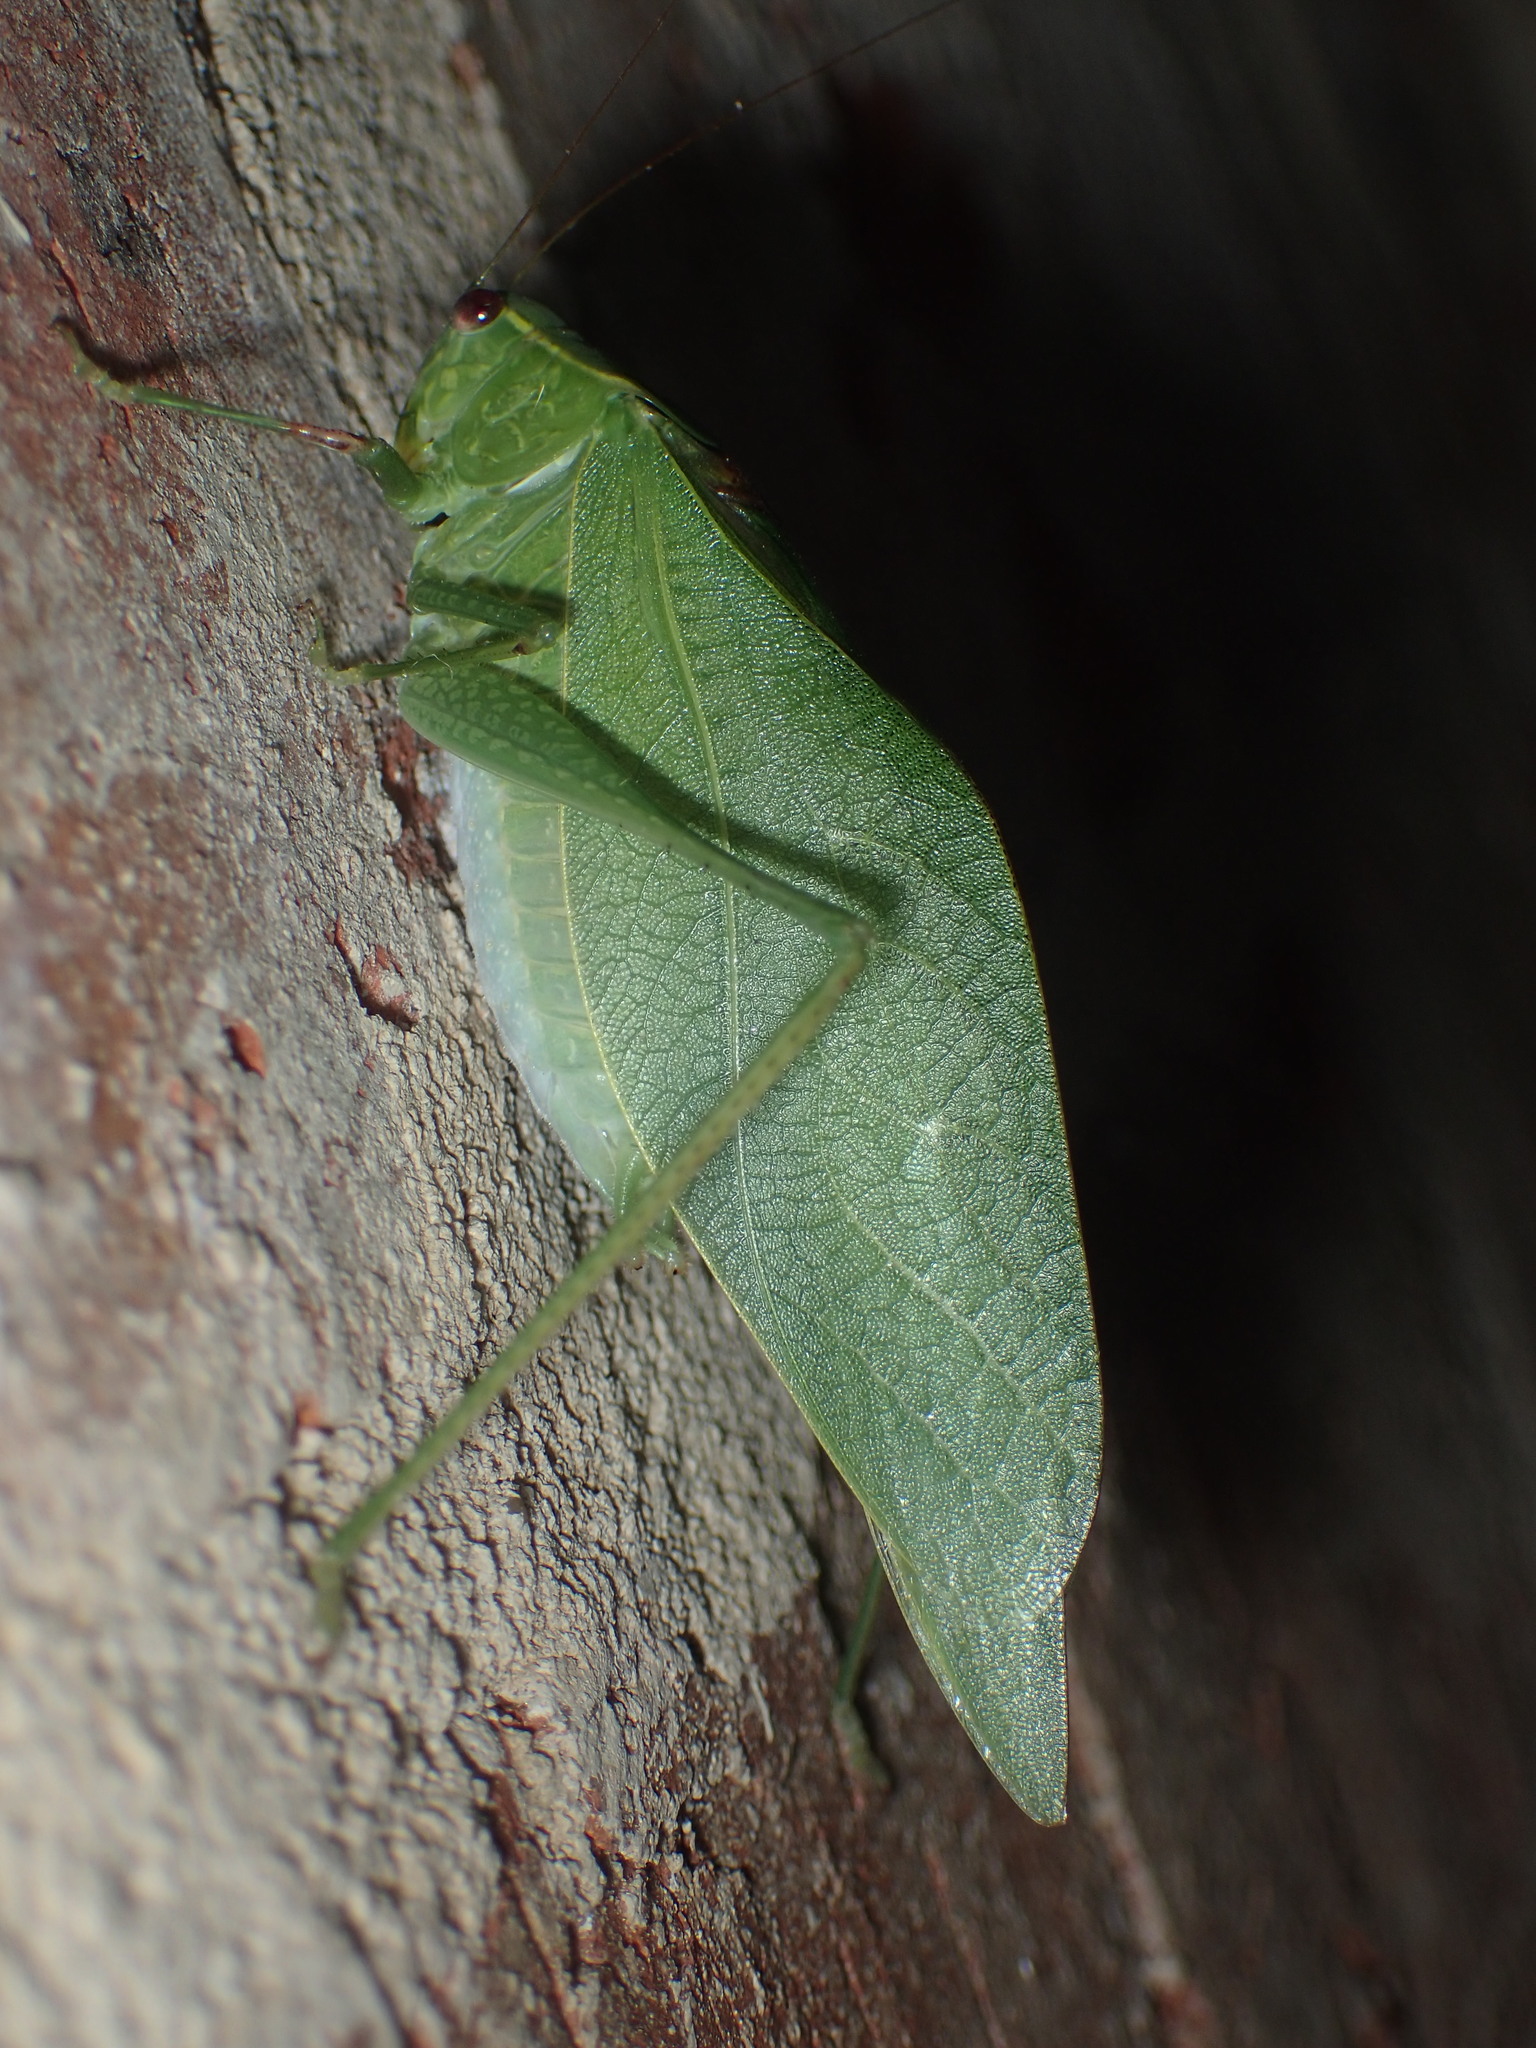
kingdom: Animalia
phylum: Arthropoda
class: Insecta
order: Orthoptera
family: Tettigoniidae
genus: Microcentrum
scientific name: Microcentrum retinerve
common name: Angular-winged katydid
